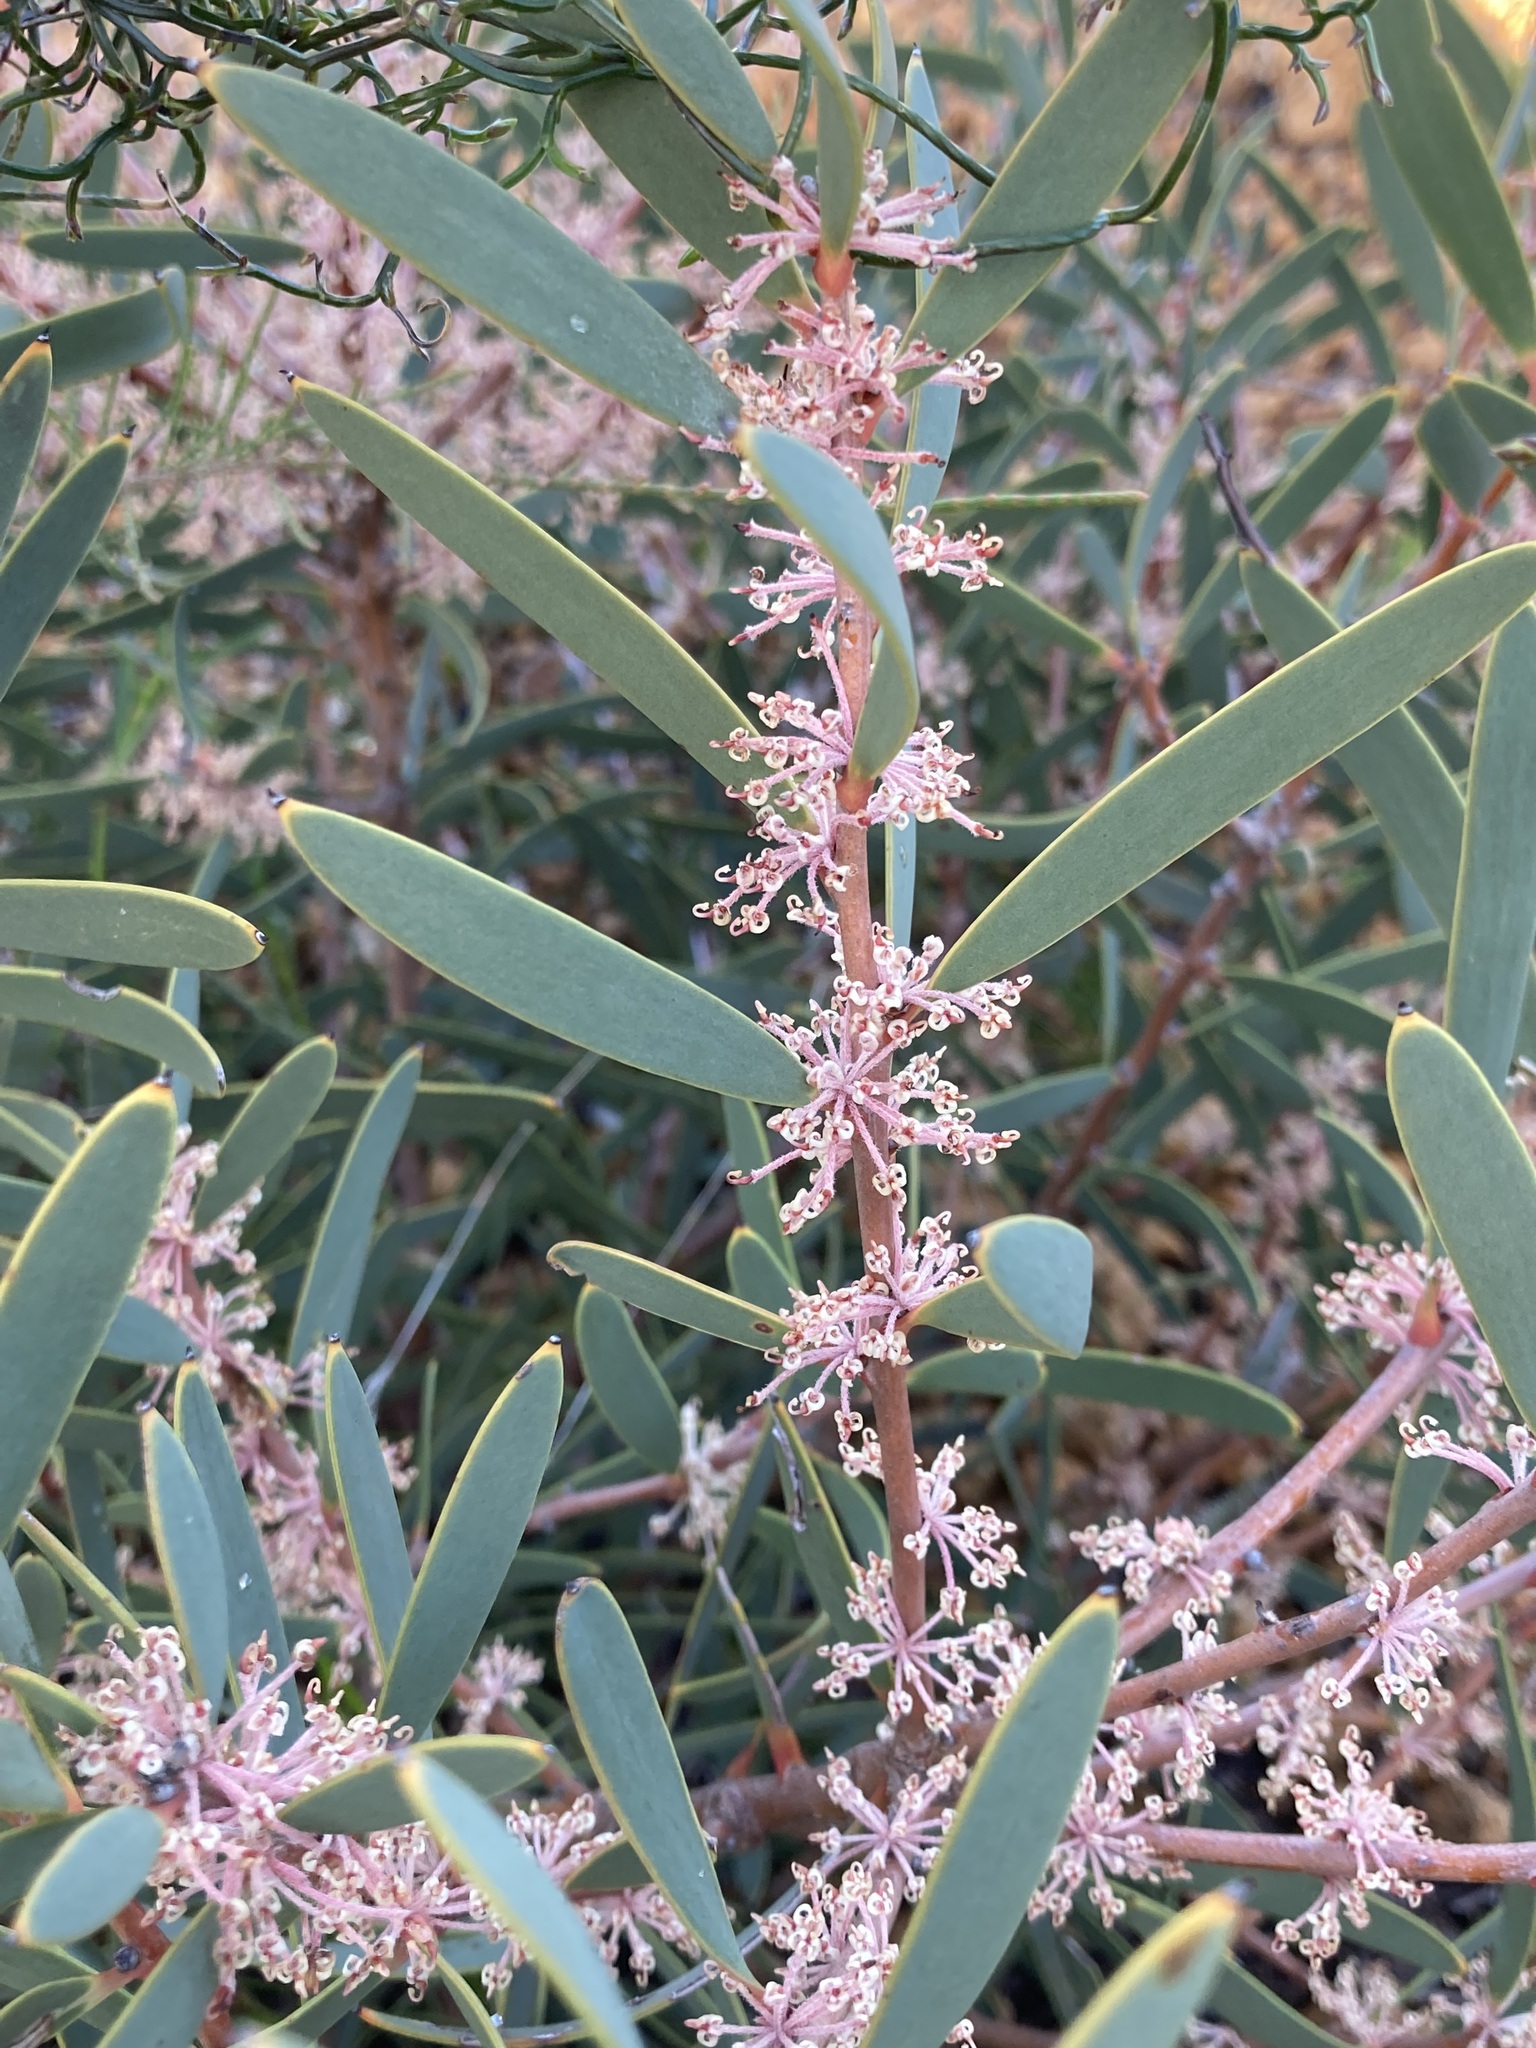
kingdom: Plantae
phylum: Tracheophyta
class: Magnoliopsida
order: Proteales
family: Proteaceae
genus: Hakea
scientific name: Hakea incrassata
